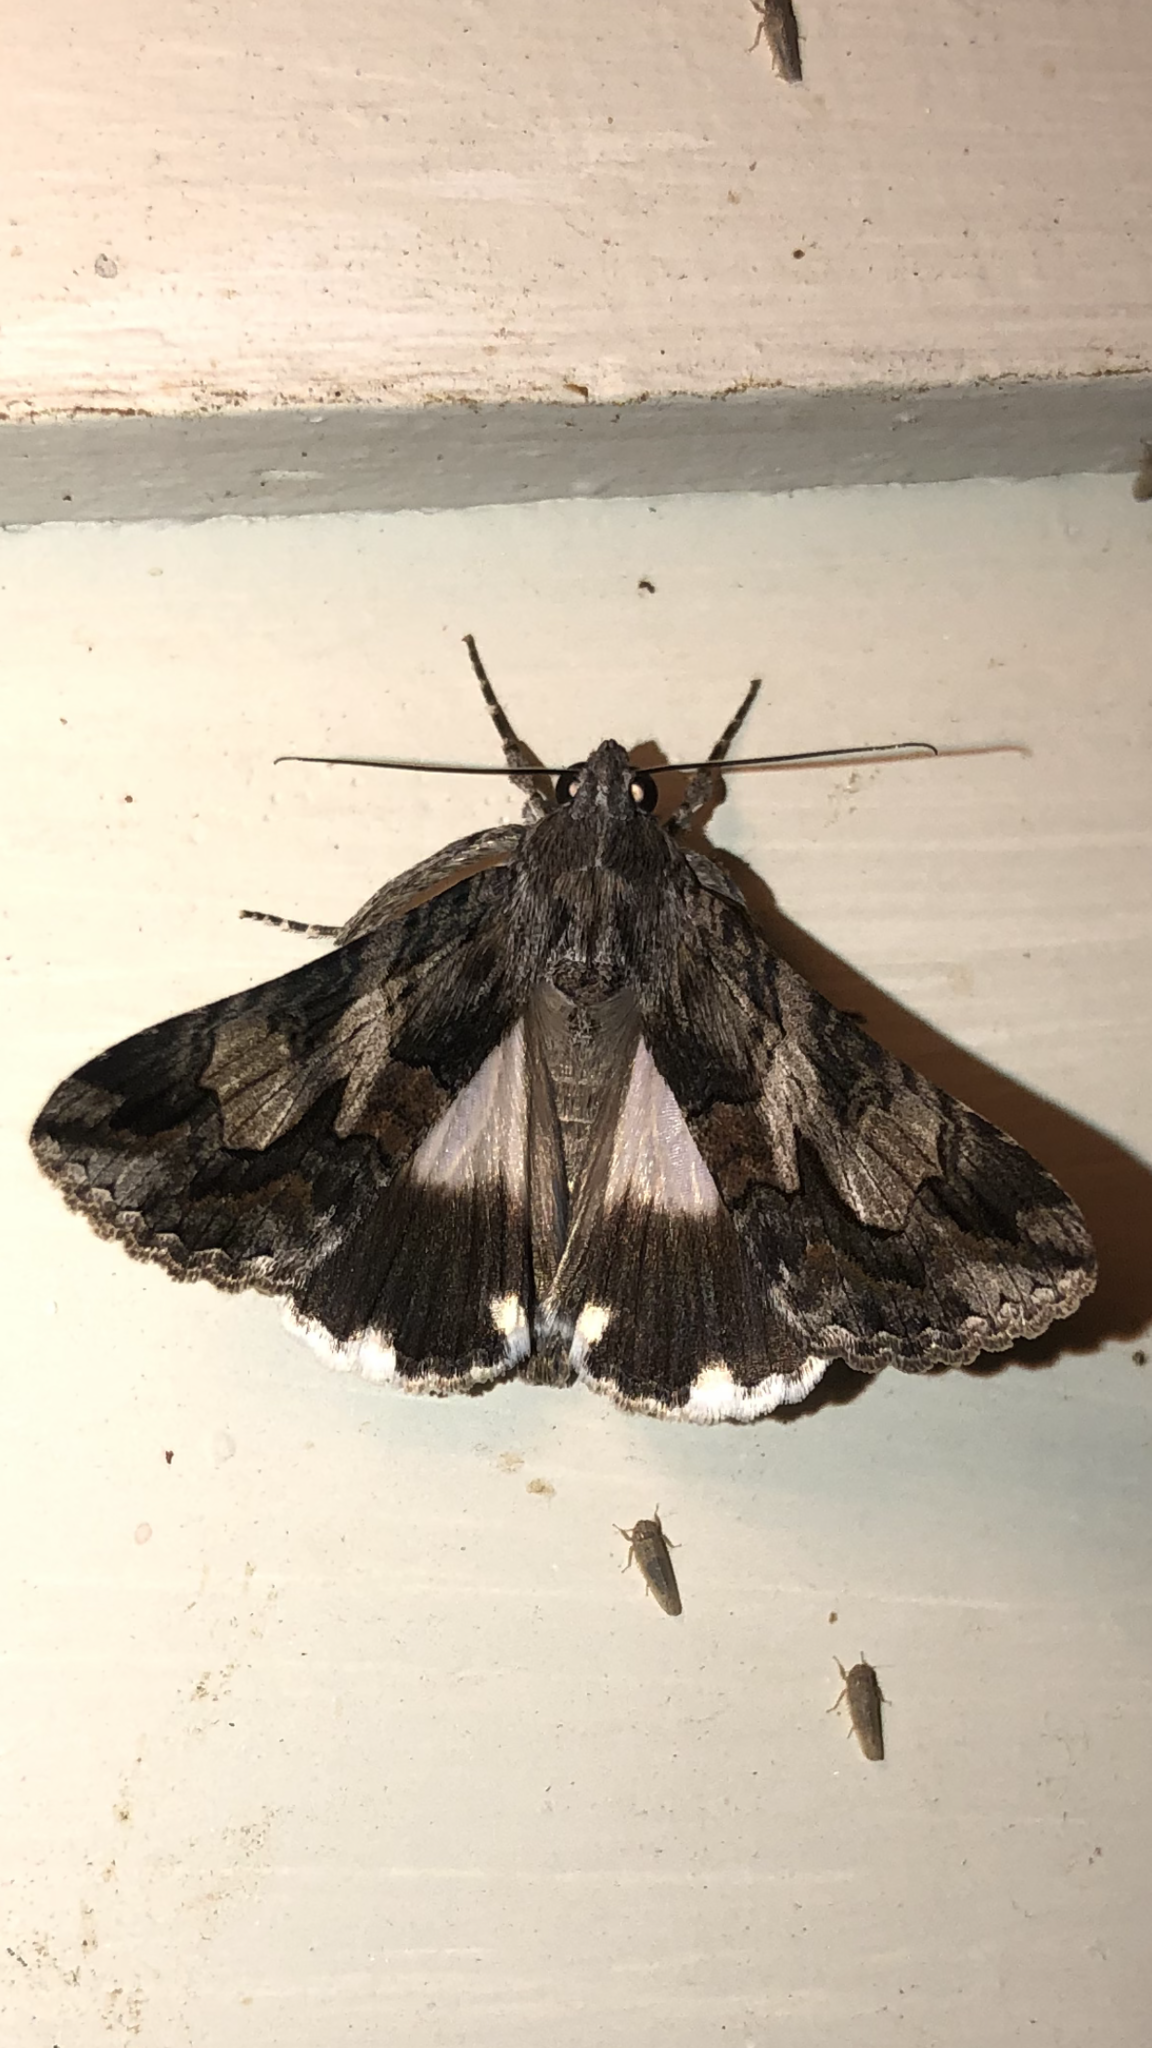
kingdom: Animalia
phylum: Arthropoda
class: Insecta
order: Lepidoptera
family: Erebidae
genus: Melipotis
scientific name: Melipotis jucunda
